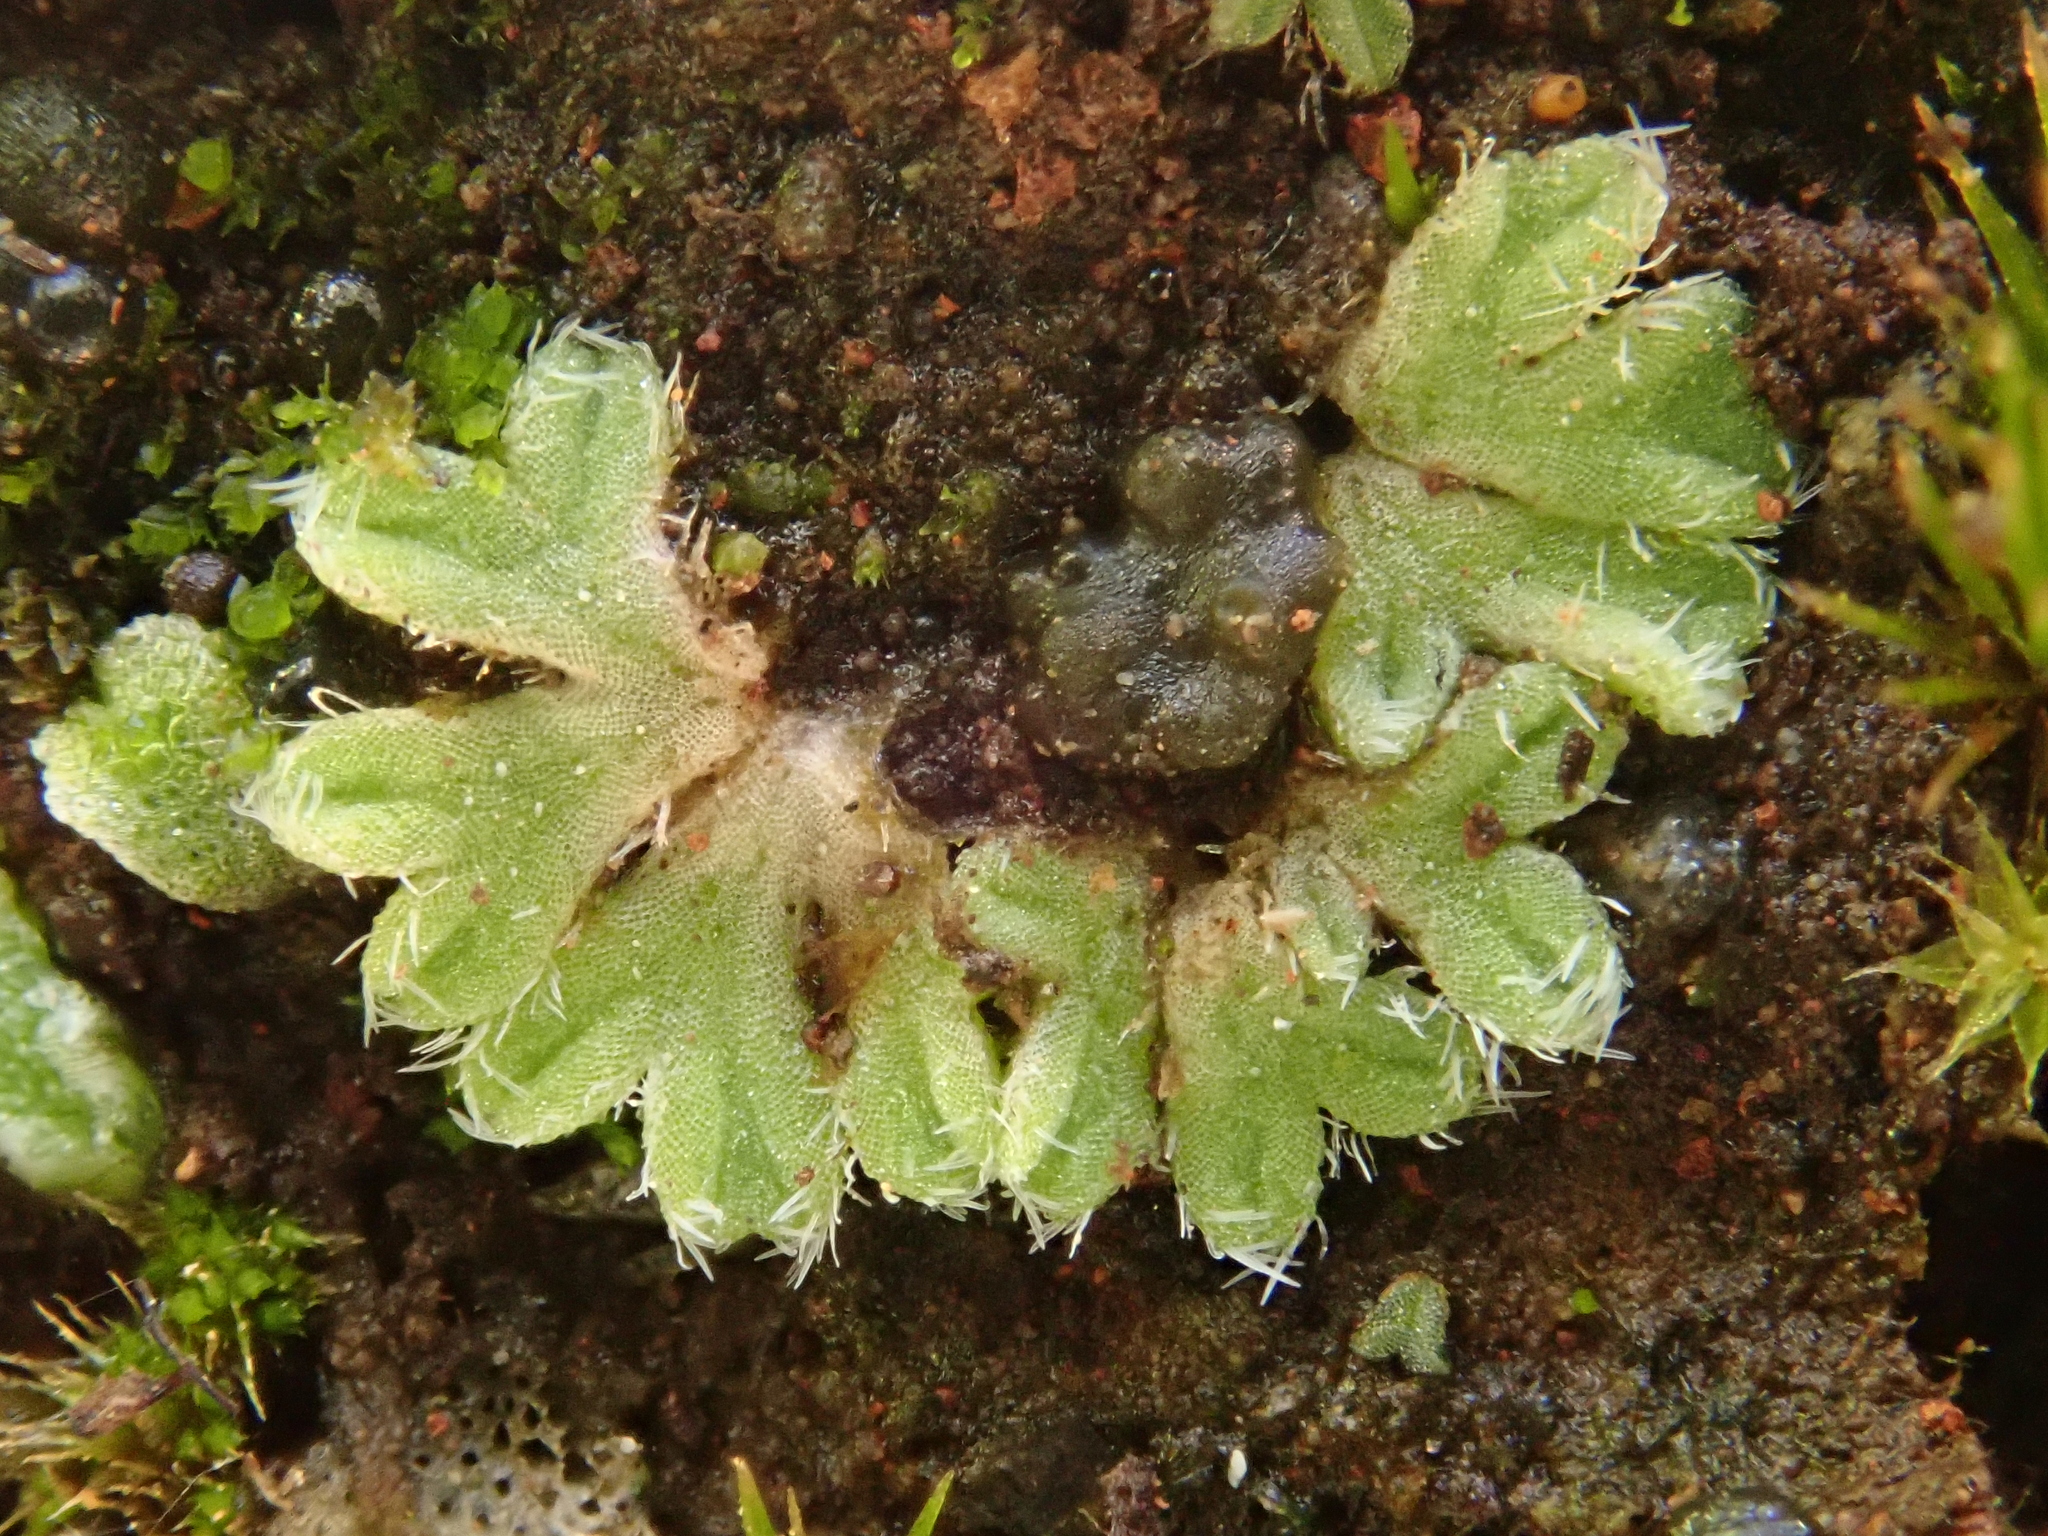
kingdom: Plantae
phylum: Marchantiophyta
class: Marchantiopsida
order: Marchantiales
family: Ricciaceae
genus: Riccia
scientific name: Riccia crozalsii
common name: Ciliate crystalwort
